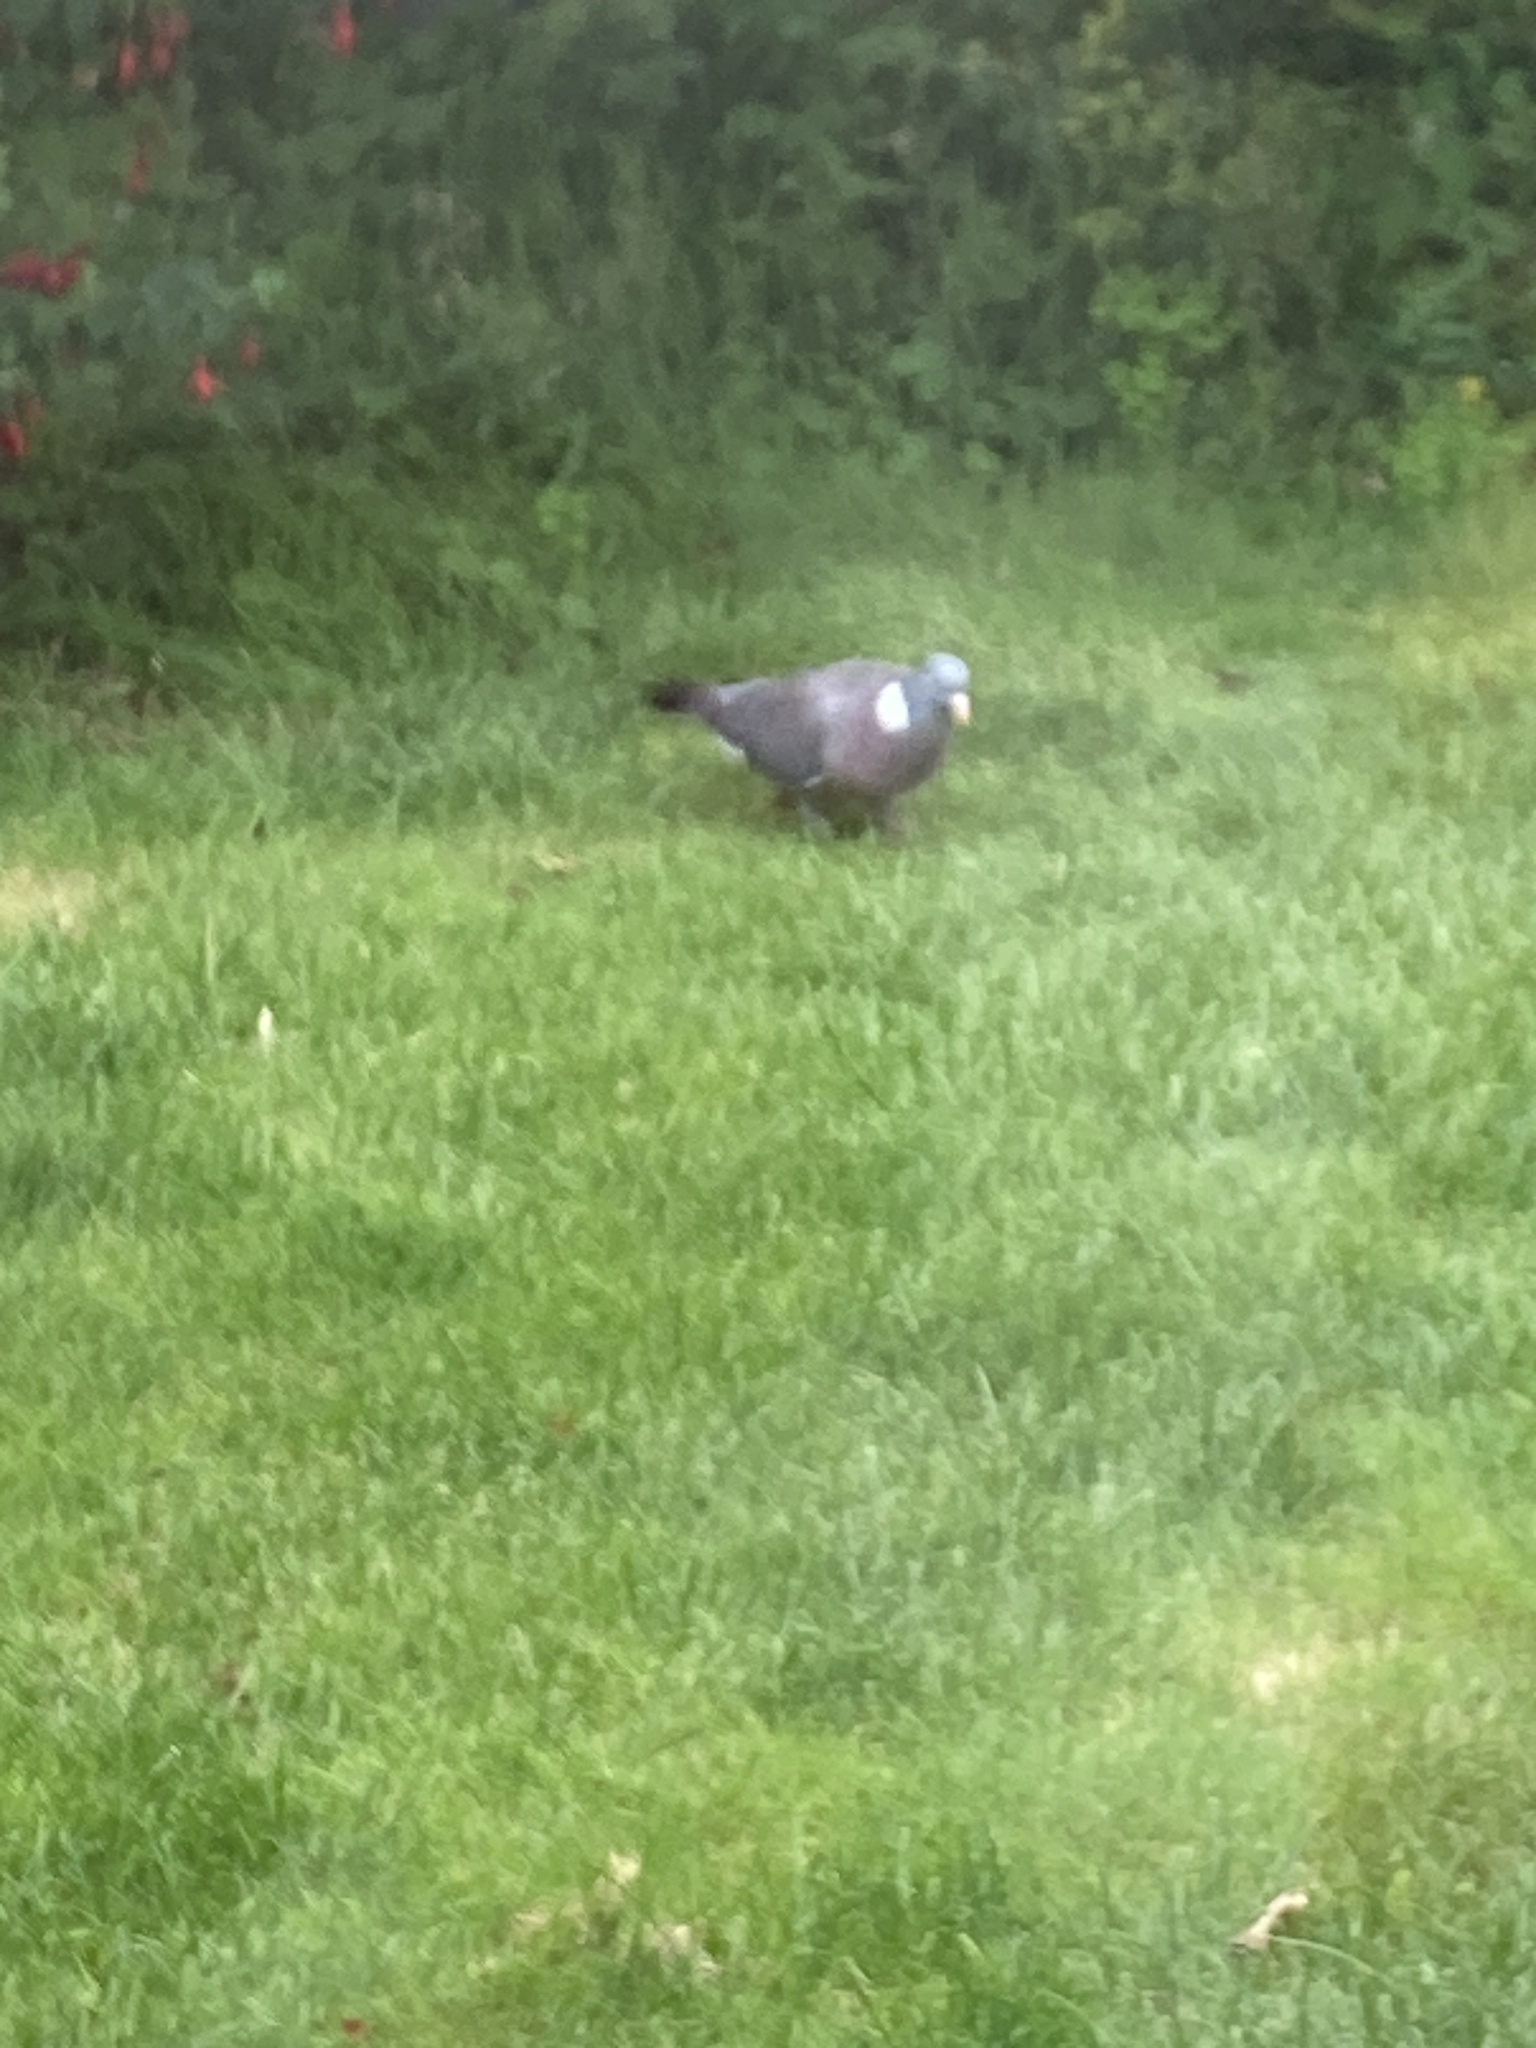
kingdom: Animalia
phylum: Chordata
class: Aves
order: Columbiformes
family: Columbidae
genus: Columba
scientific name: Columba palumbus
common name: Common wood pigeon
